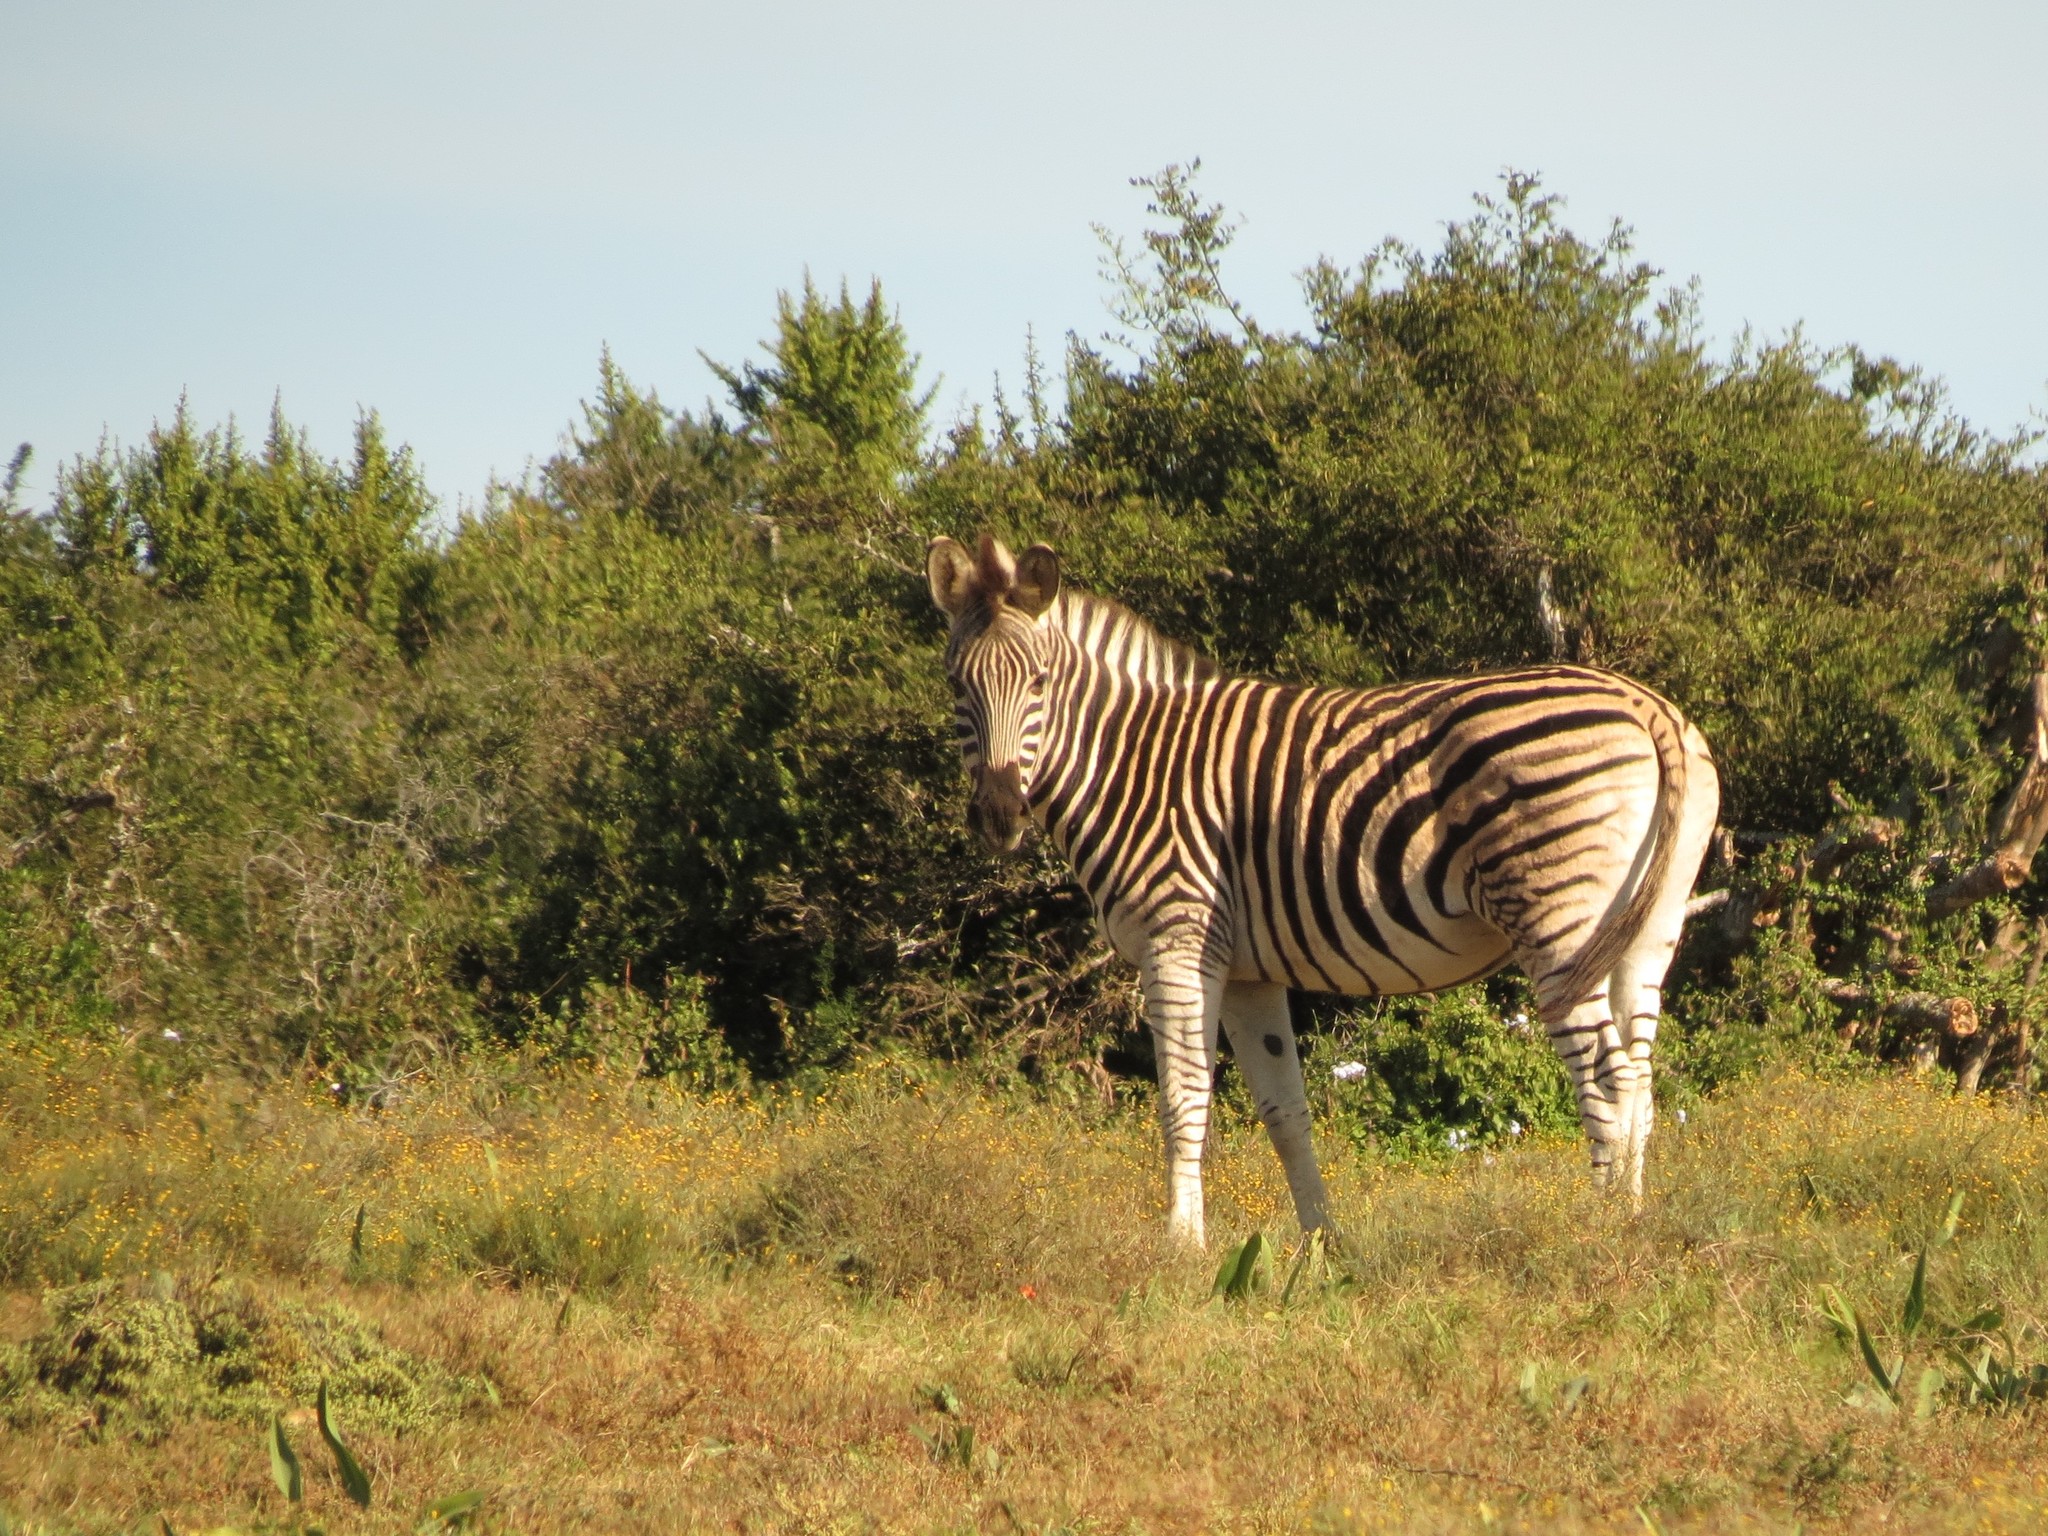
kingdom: Animalia
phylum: Chordata
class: Mammalia
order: Perissodactyla
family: Equidae
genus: Equus
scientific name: Equus quagga
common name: Plains zebra
